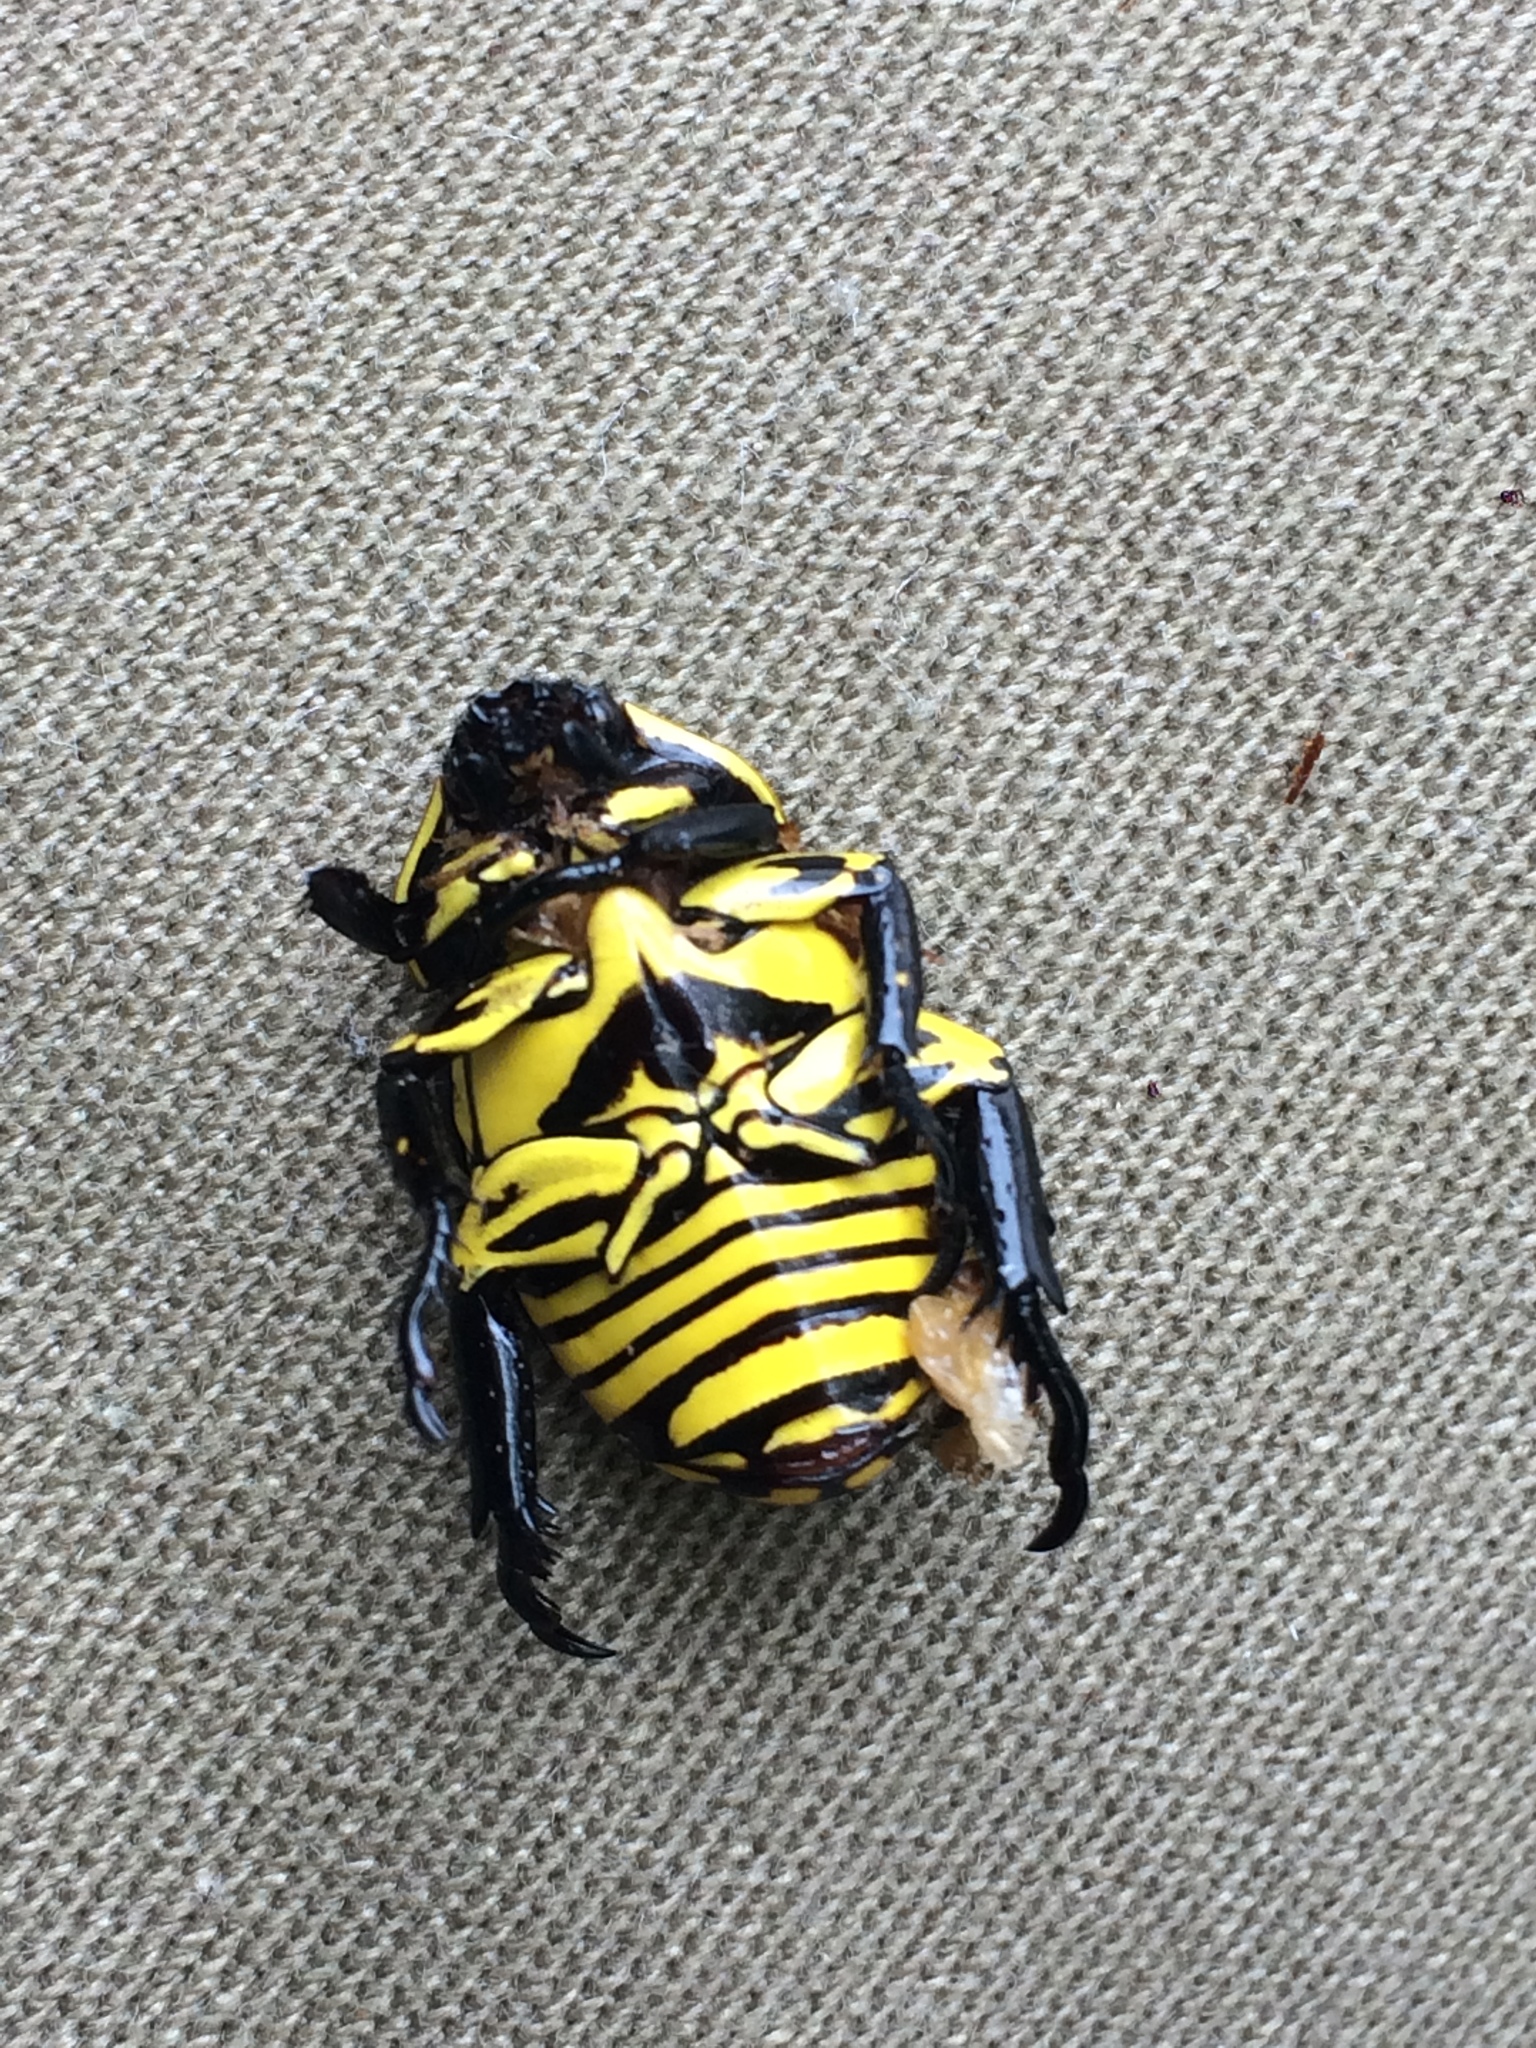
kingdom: Animalia
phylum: Arthropoda
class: Insecta
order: Coleoptera
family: Scarabaeidae
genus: Rutela
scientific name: Rutela lineola
